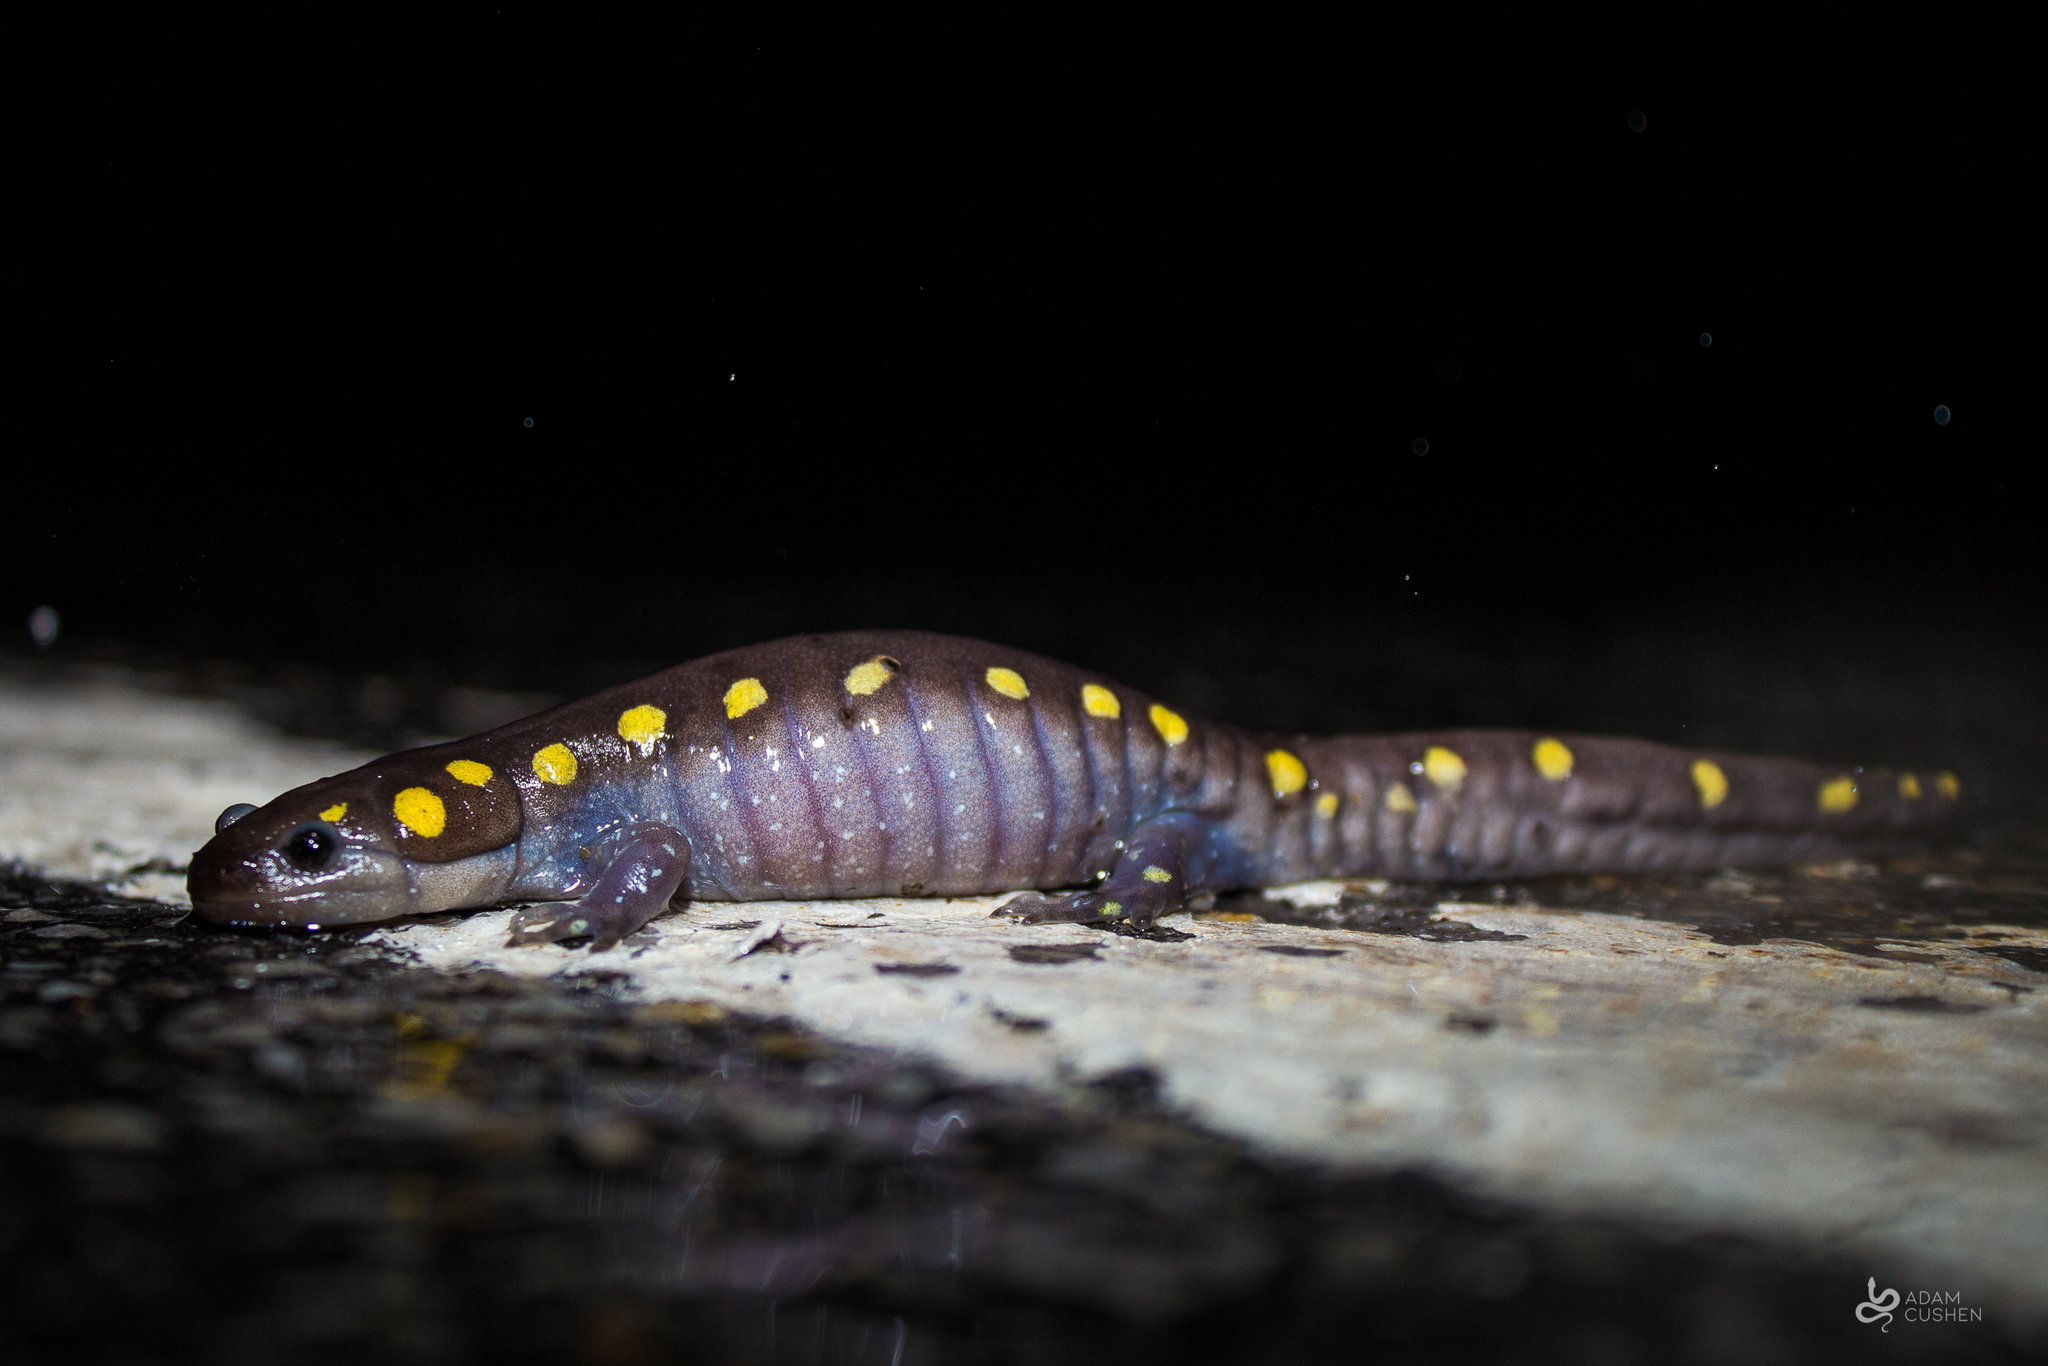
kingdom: Animalia
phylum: Chordata
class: Amphibia
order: Caudata
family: Ambystomatidae
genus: Ambystoma
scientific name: Ambystoma maculatum
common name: Spotted salamander
